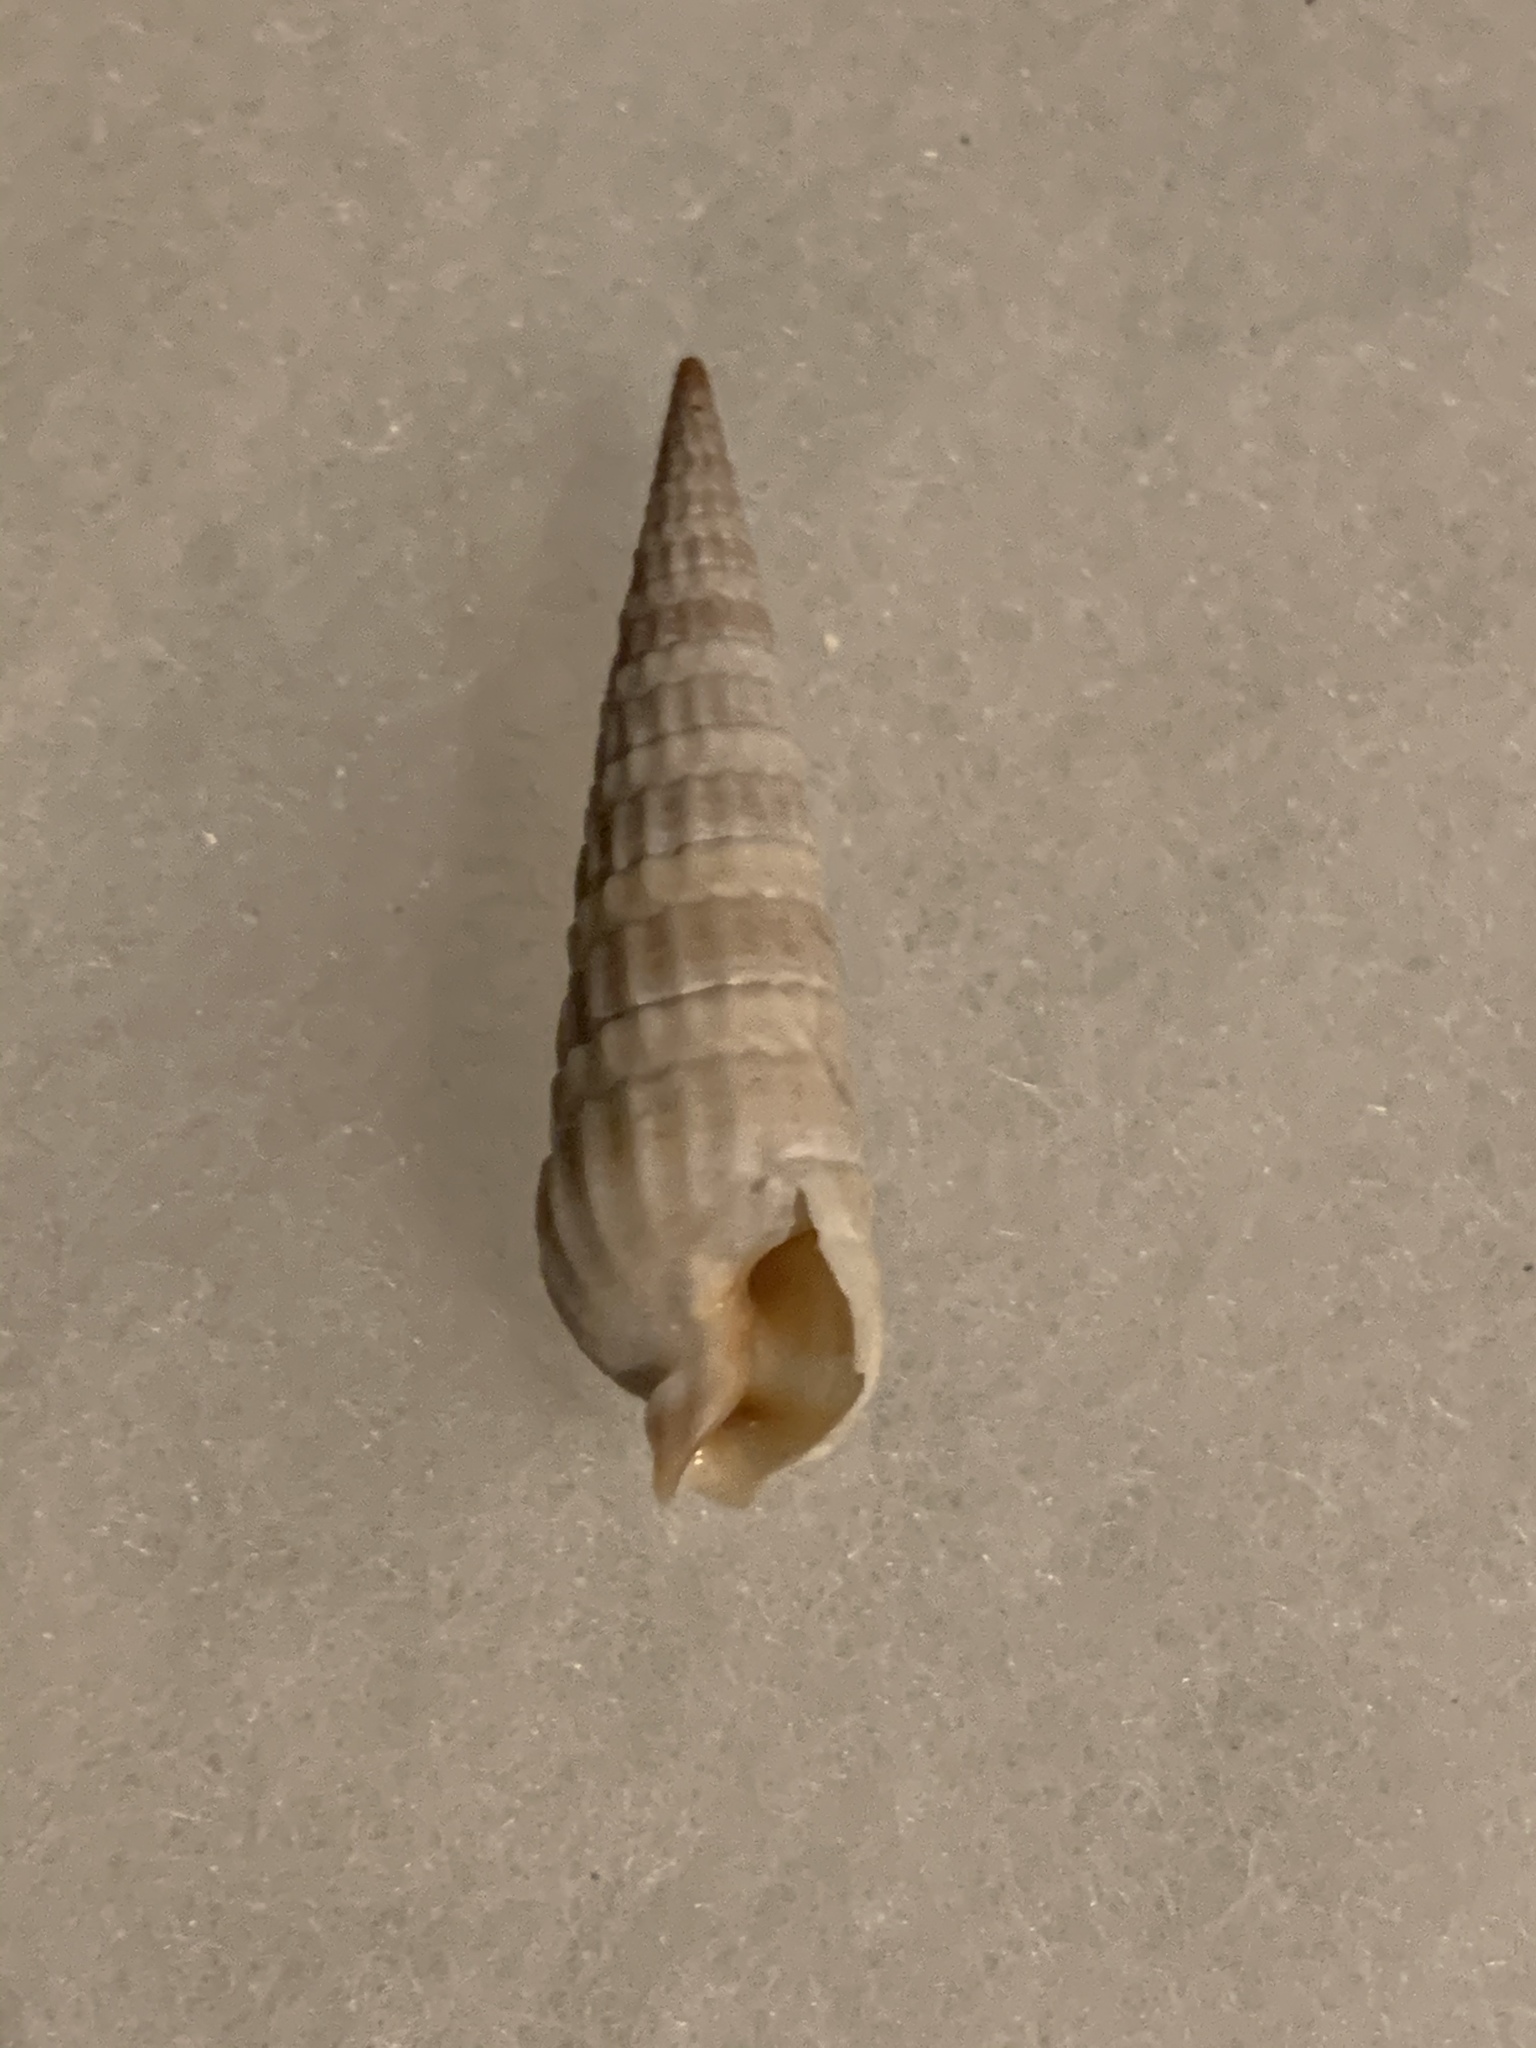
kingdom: Animalia
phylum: Mollusca
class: Gastropoda
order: Neogastropoda
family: Terebridae
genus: Neoterebra
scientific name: Neoterebra dislocata
